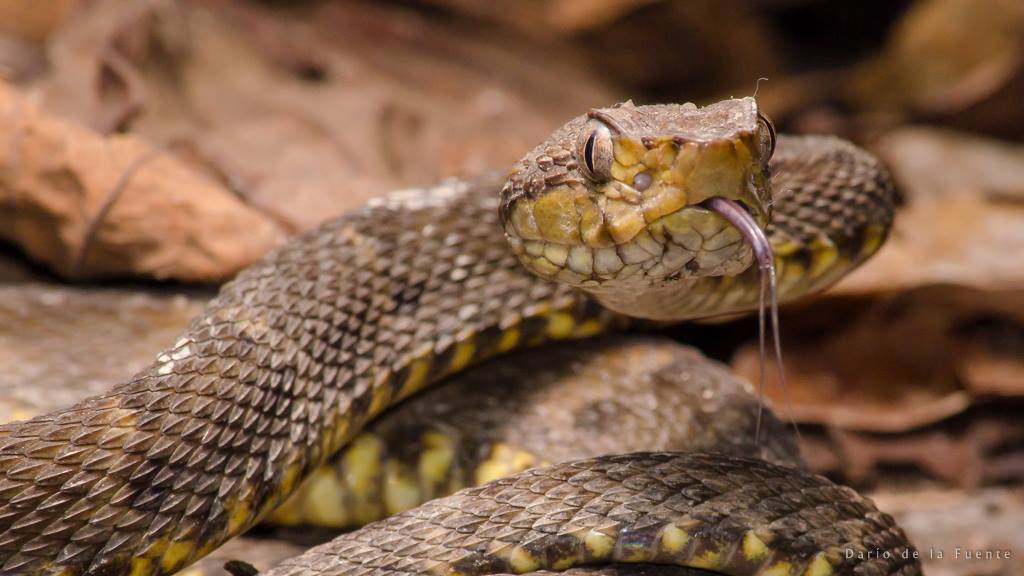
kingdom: Animalia
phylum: Chordata
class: Squamata
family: Viperidae
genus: Bothrops
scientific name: Bothrops atrox
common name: Common lancehead
